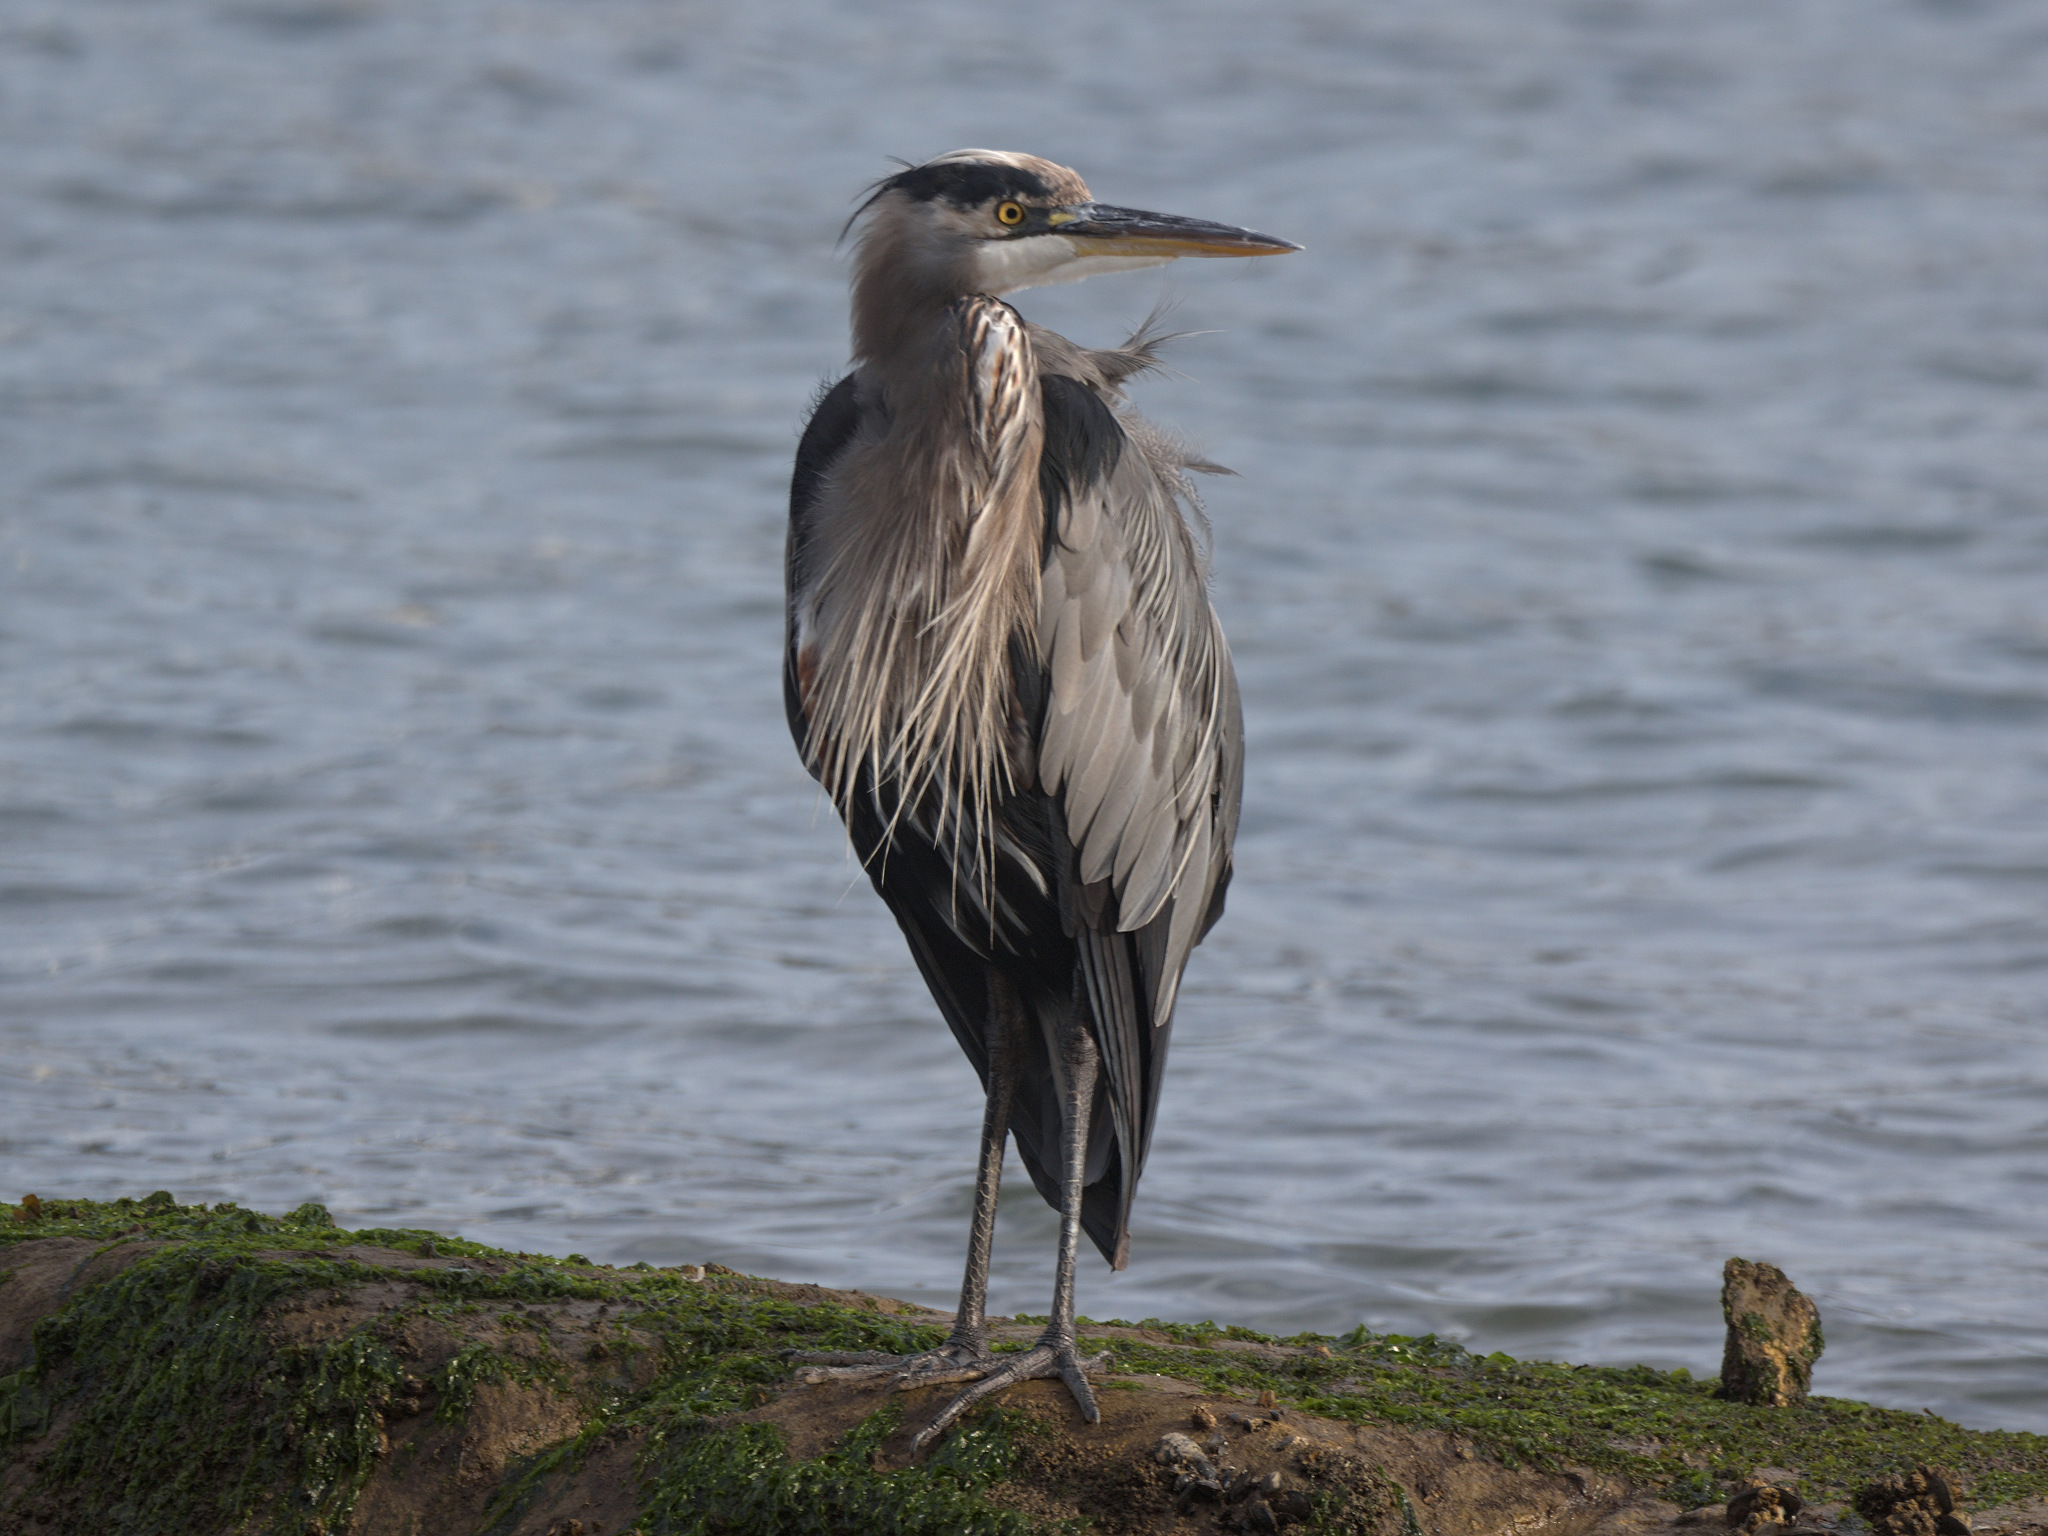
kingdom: Animalia
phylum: Chordata
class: Aves
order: Pelecaniformes
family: Ardeidae
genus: Ardea
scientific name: Ardea herodias
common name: Great blue heron
